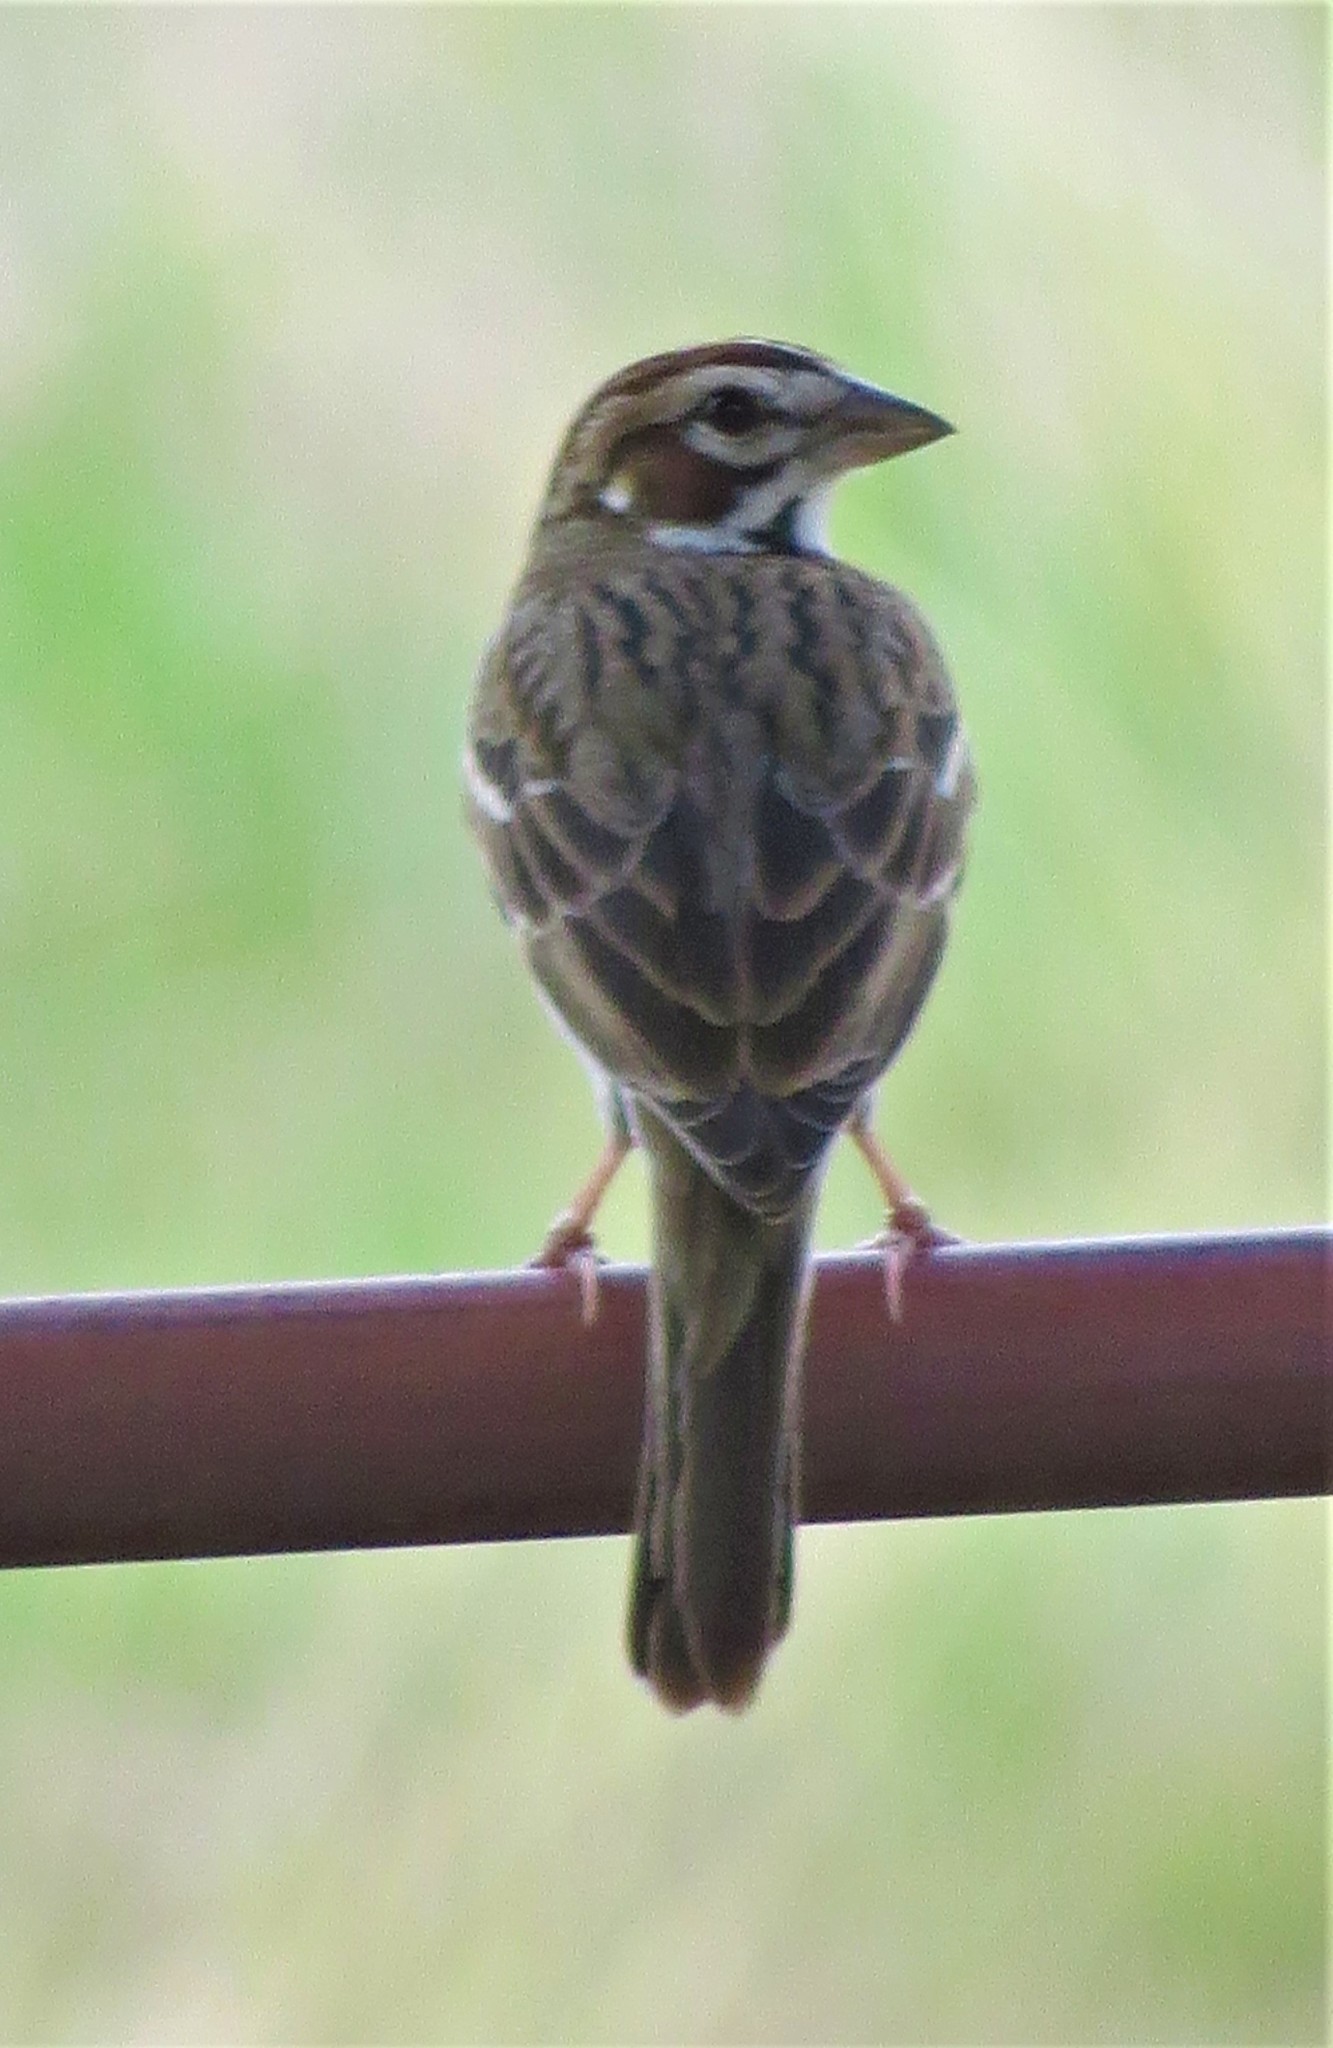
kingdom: Animalia
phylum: Chordata
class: Aves
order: Passeriformes
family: Passerellidae
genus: Chondestes
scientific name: Chondestes grammacus
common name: Lark sparrow
